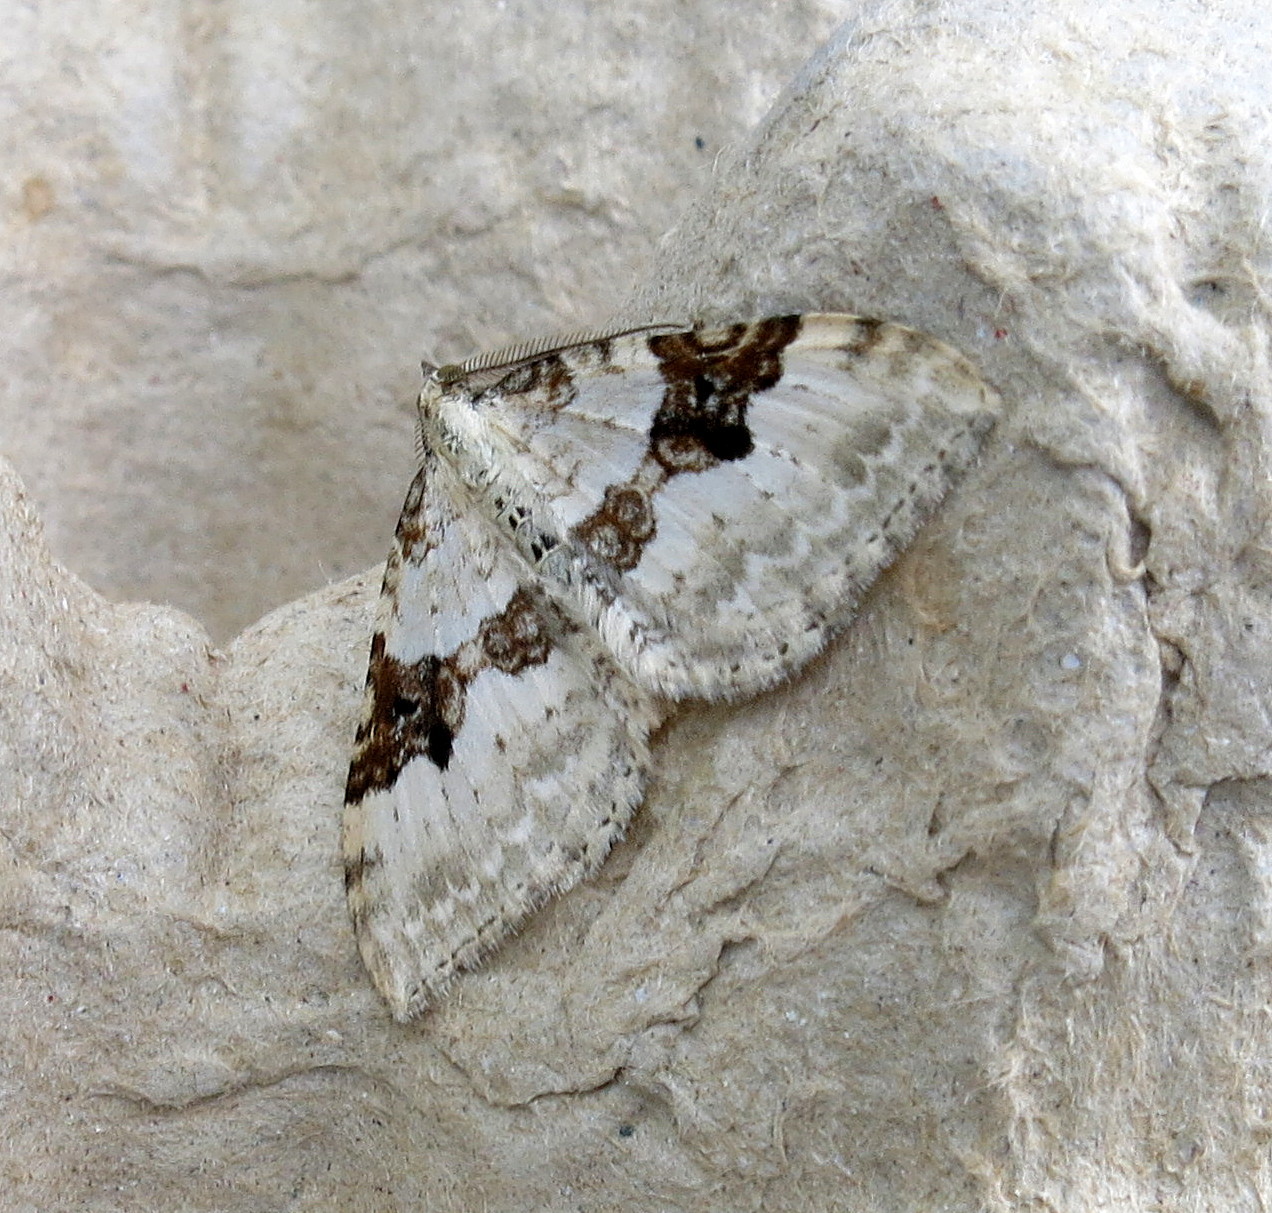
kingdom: Animalia
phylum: Arthropoda
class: Insecta
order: Lepidoptera
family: Geometridae
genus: Xanthorhoe
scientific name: Xanthorhoe montanata
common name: Silver-ground carpet
